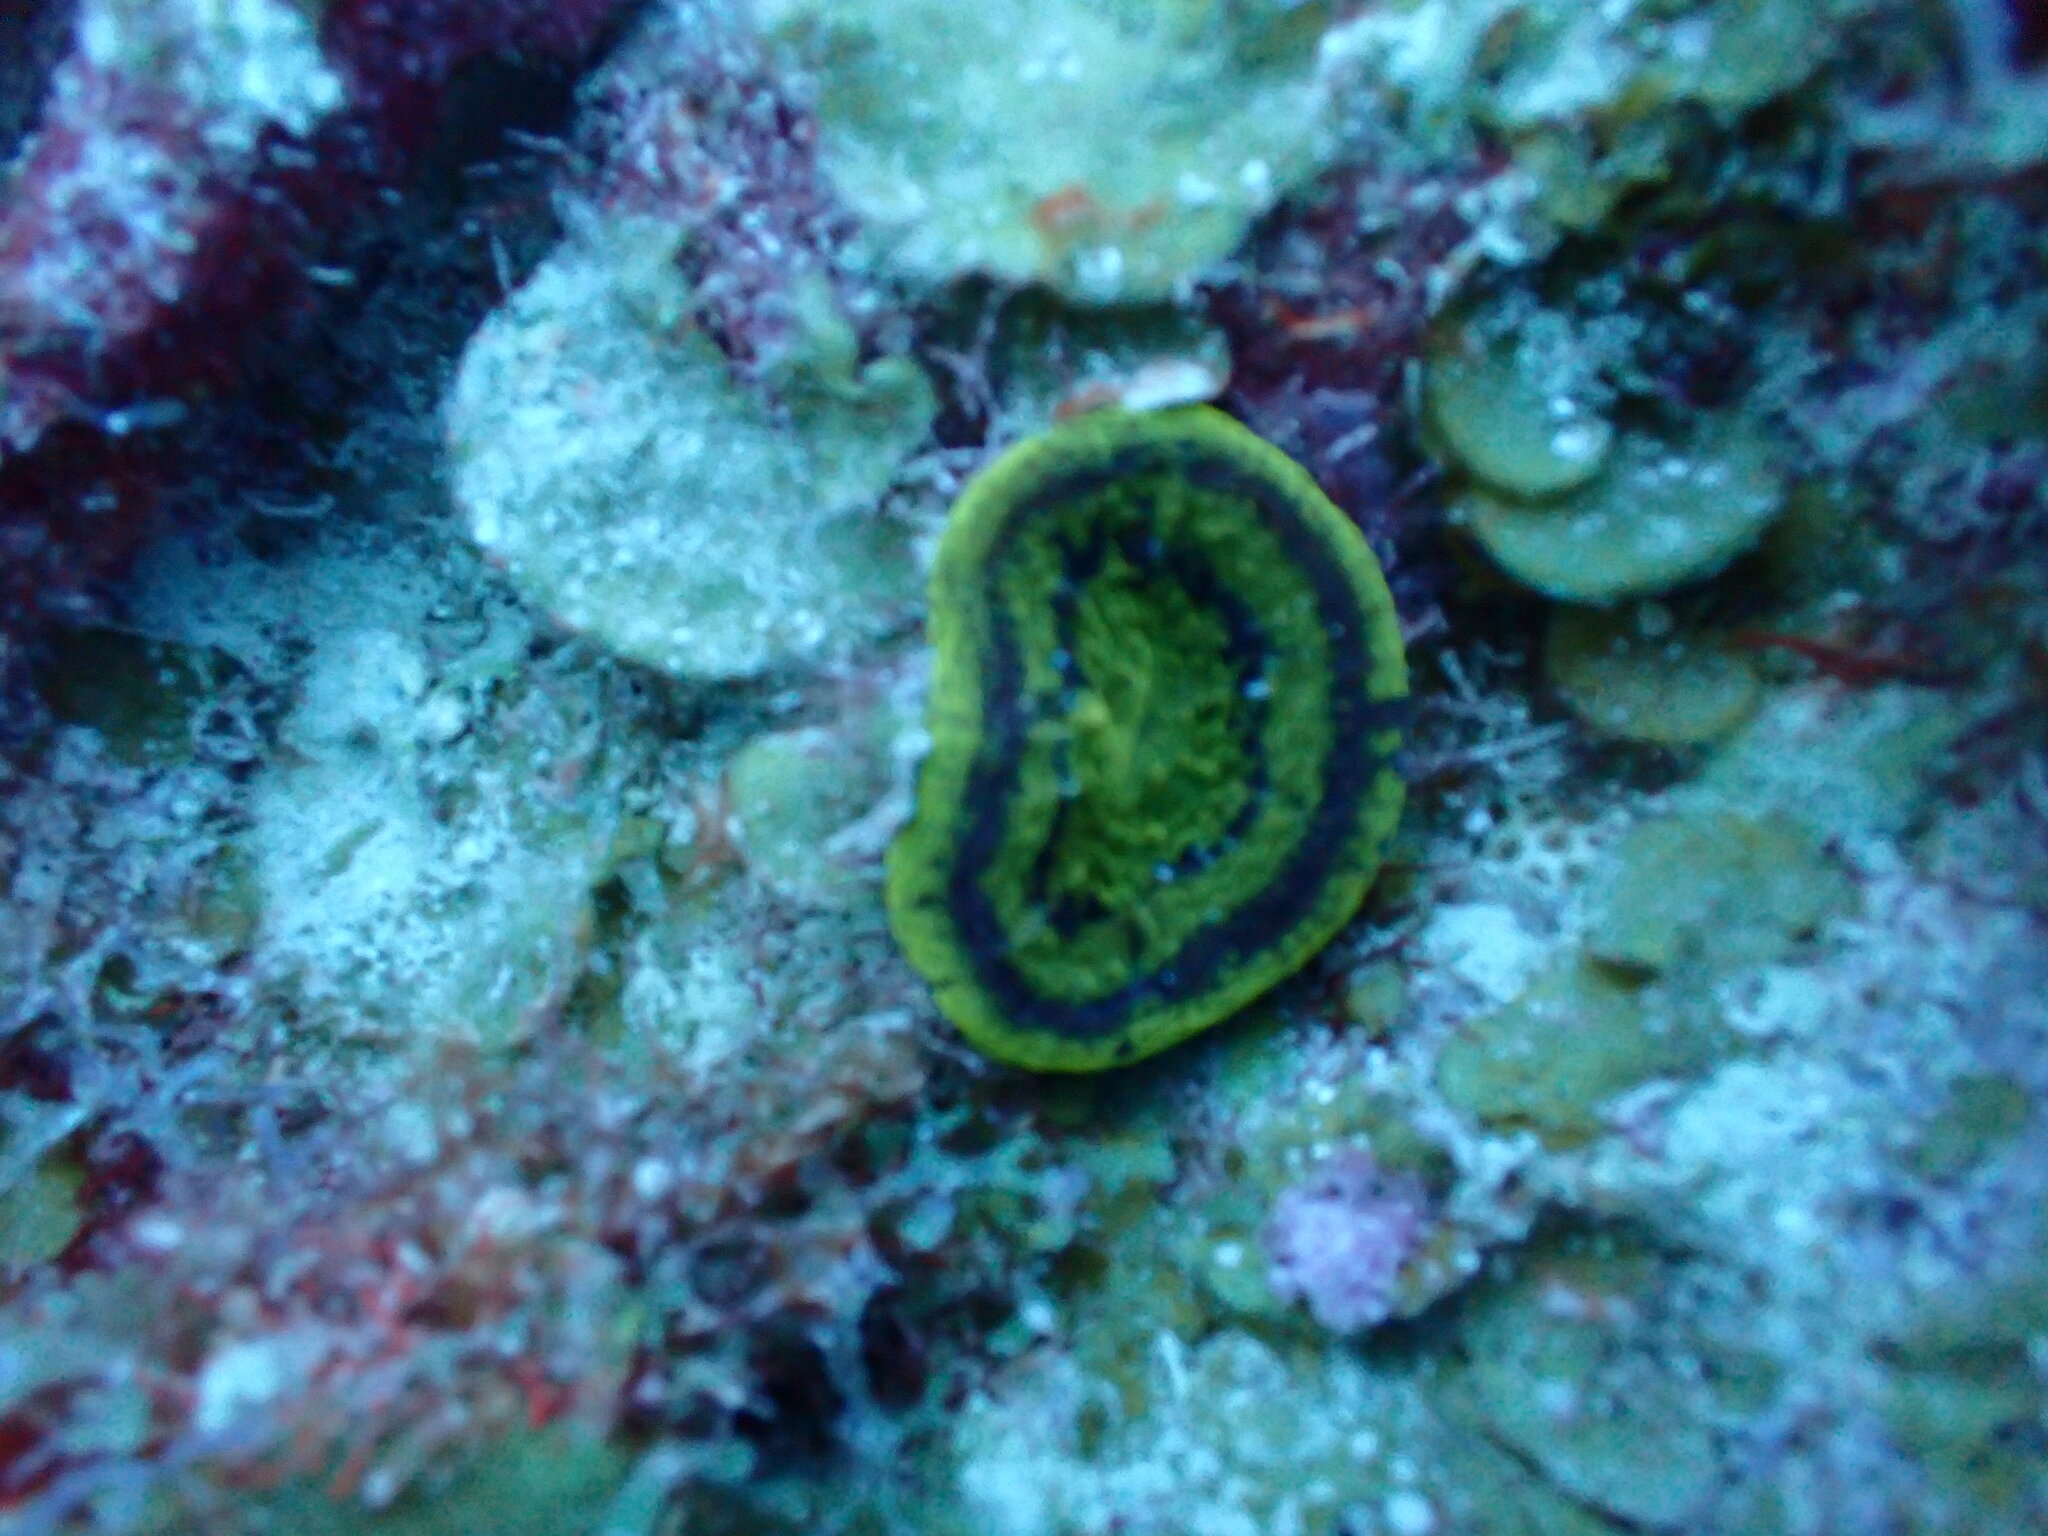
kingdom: Animalia
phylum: Cnidaria
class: Anthozoa
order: Scleractinia
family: Faviidae
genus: Scolymia
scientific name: Scolymia cubensis
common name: Artichoke coral
